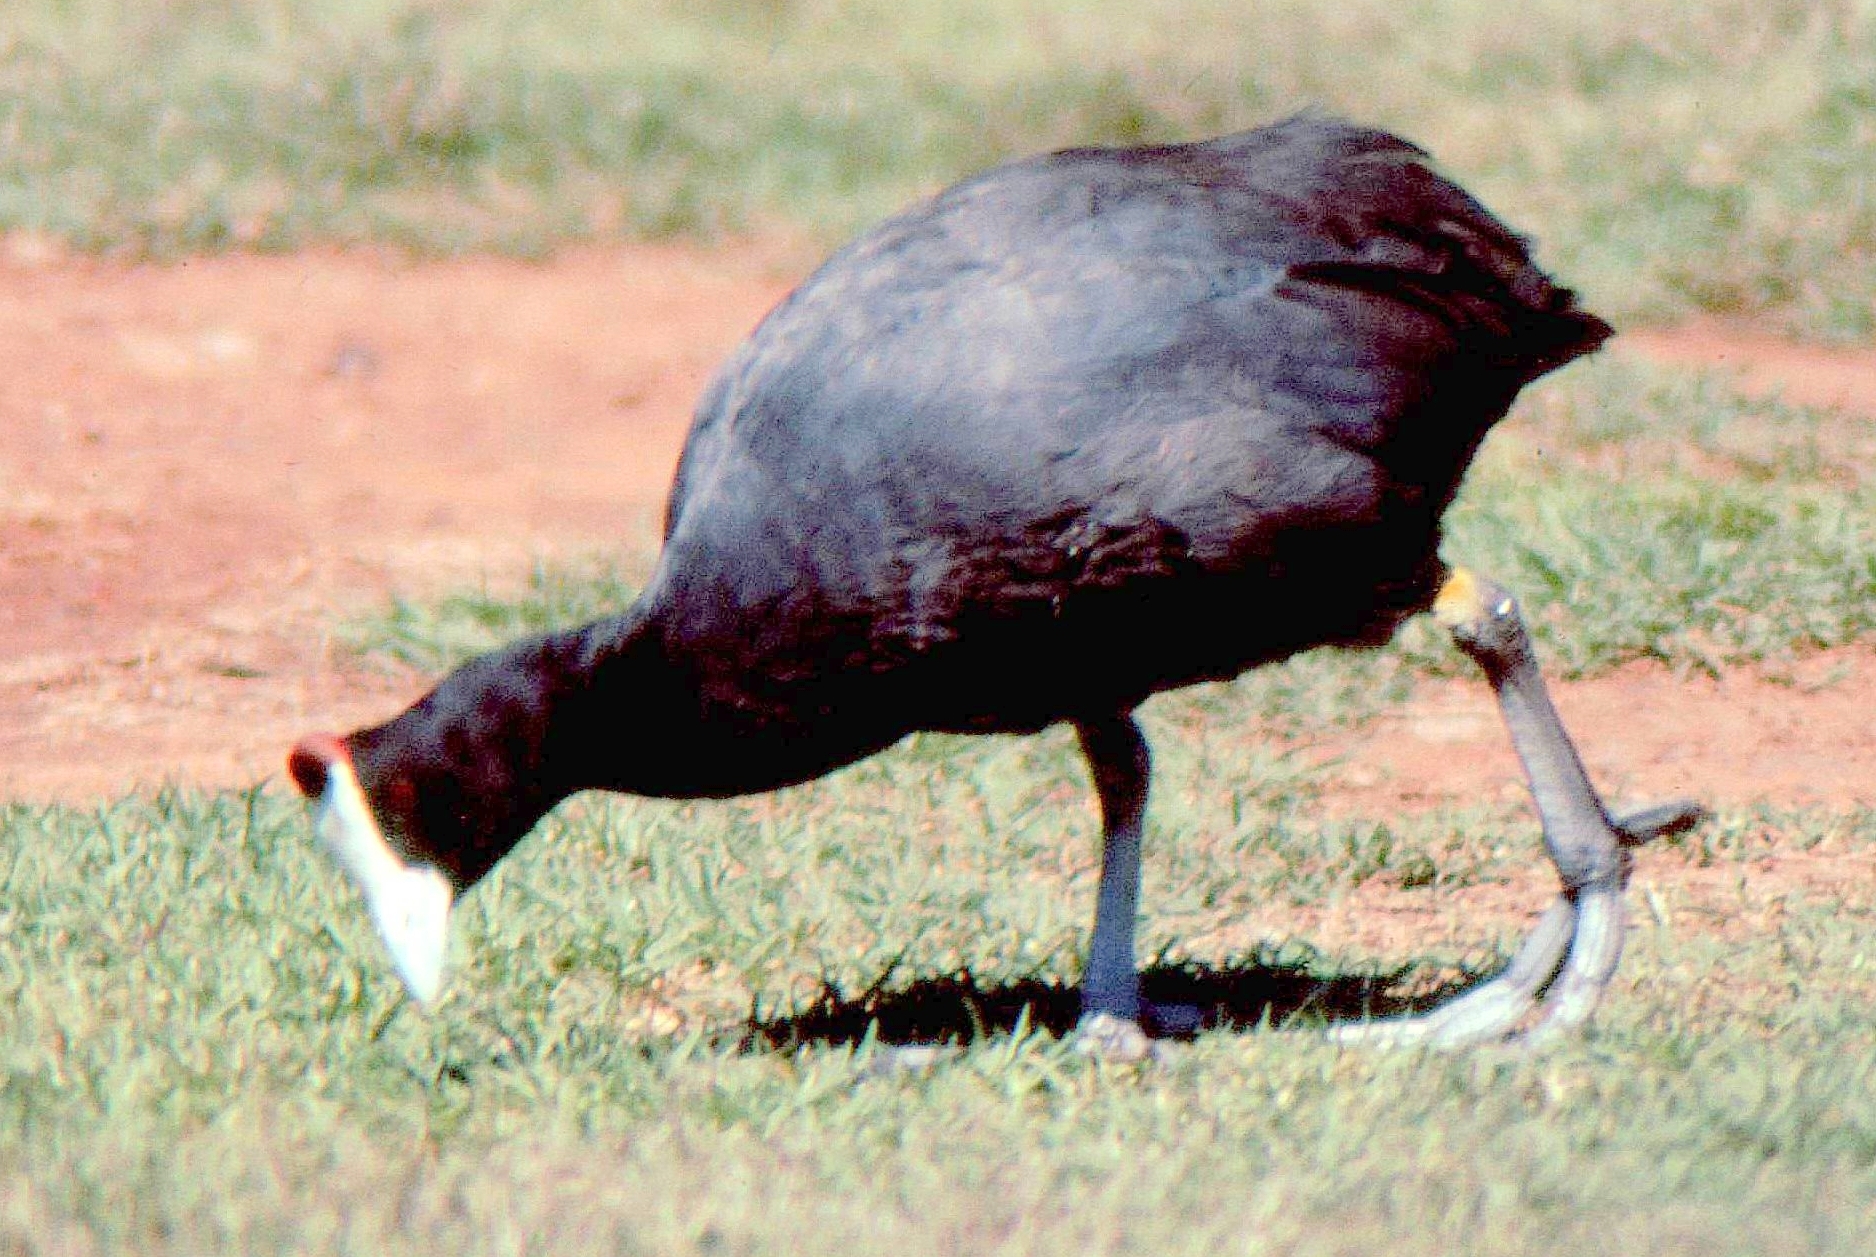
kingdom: Animalia
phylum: Chordata
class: Aves
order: Gruiformes
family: Rallidae
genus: Fulica
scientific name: Fulica cristata
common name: Red-knobbed coot
